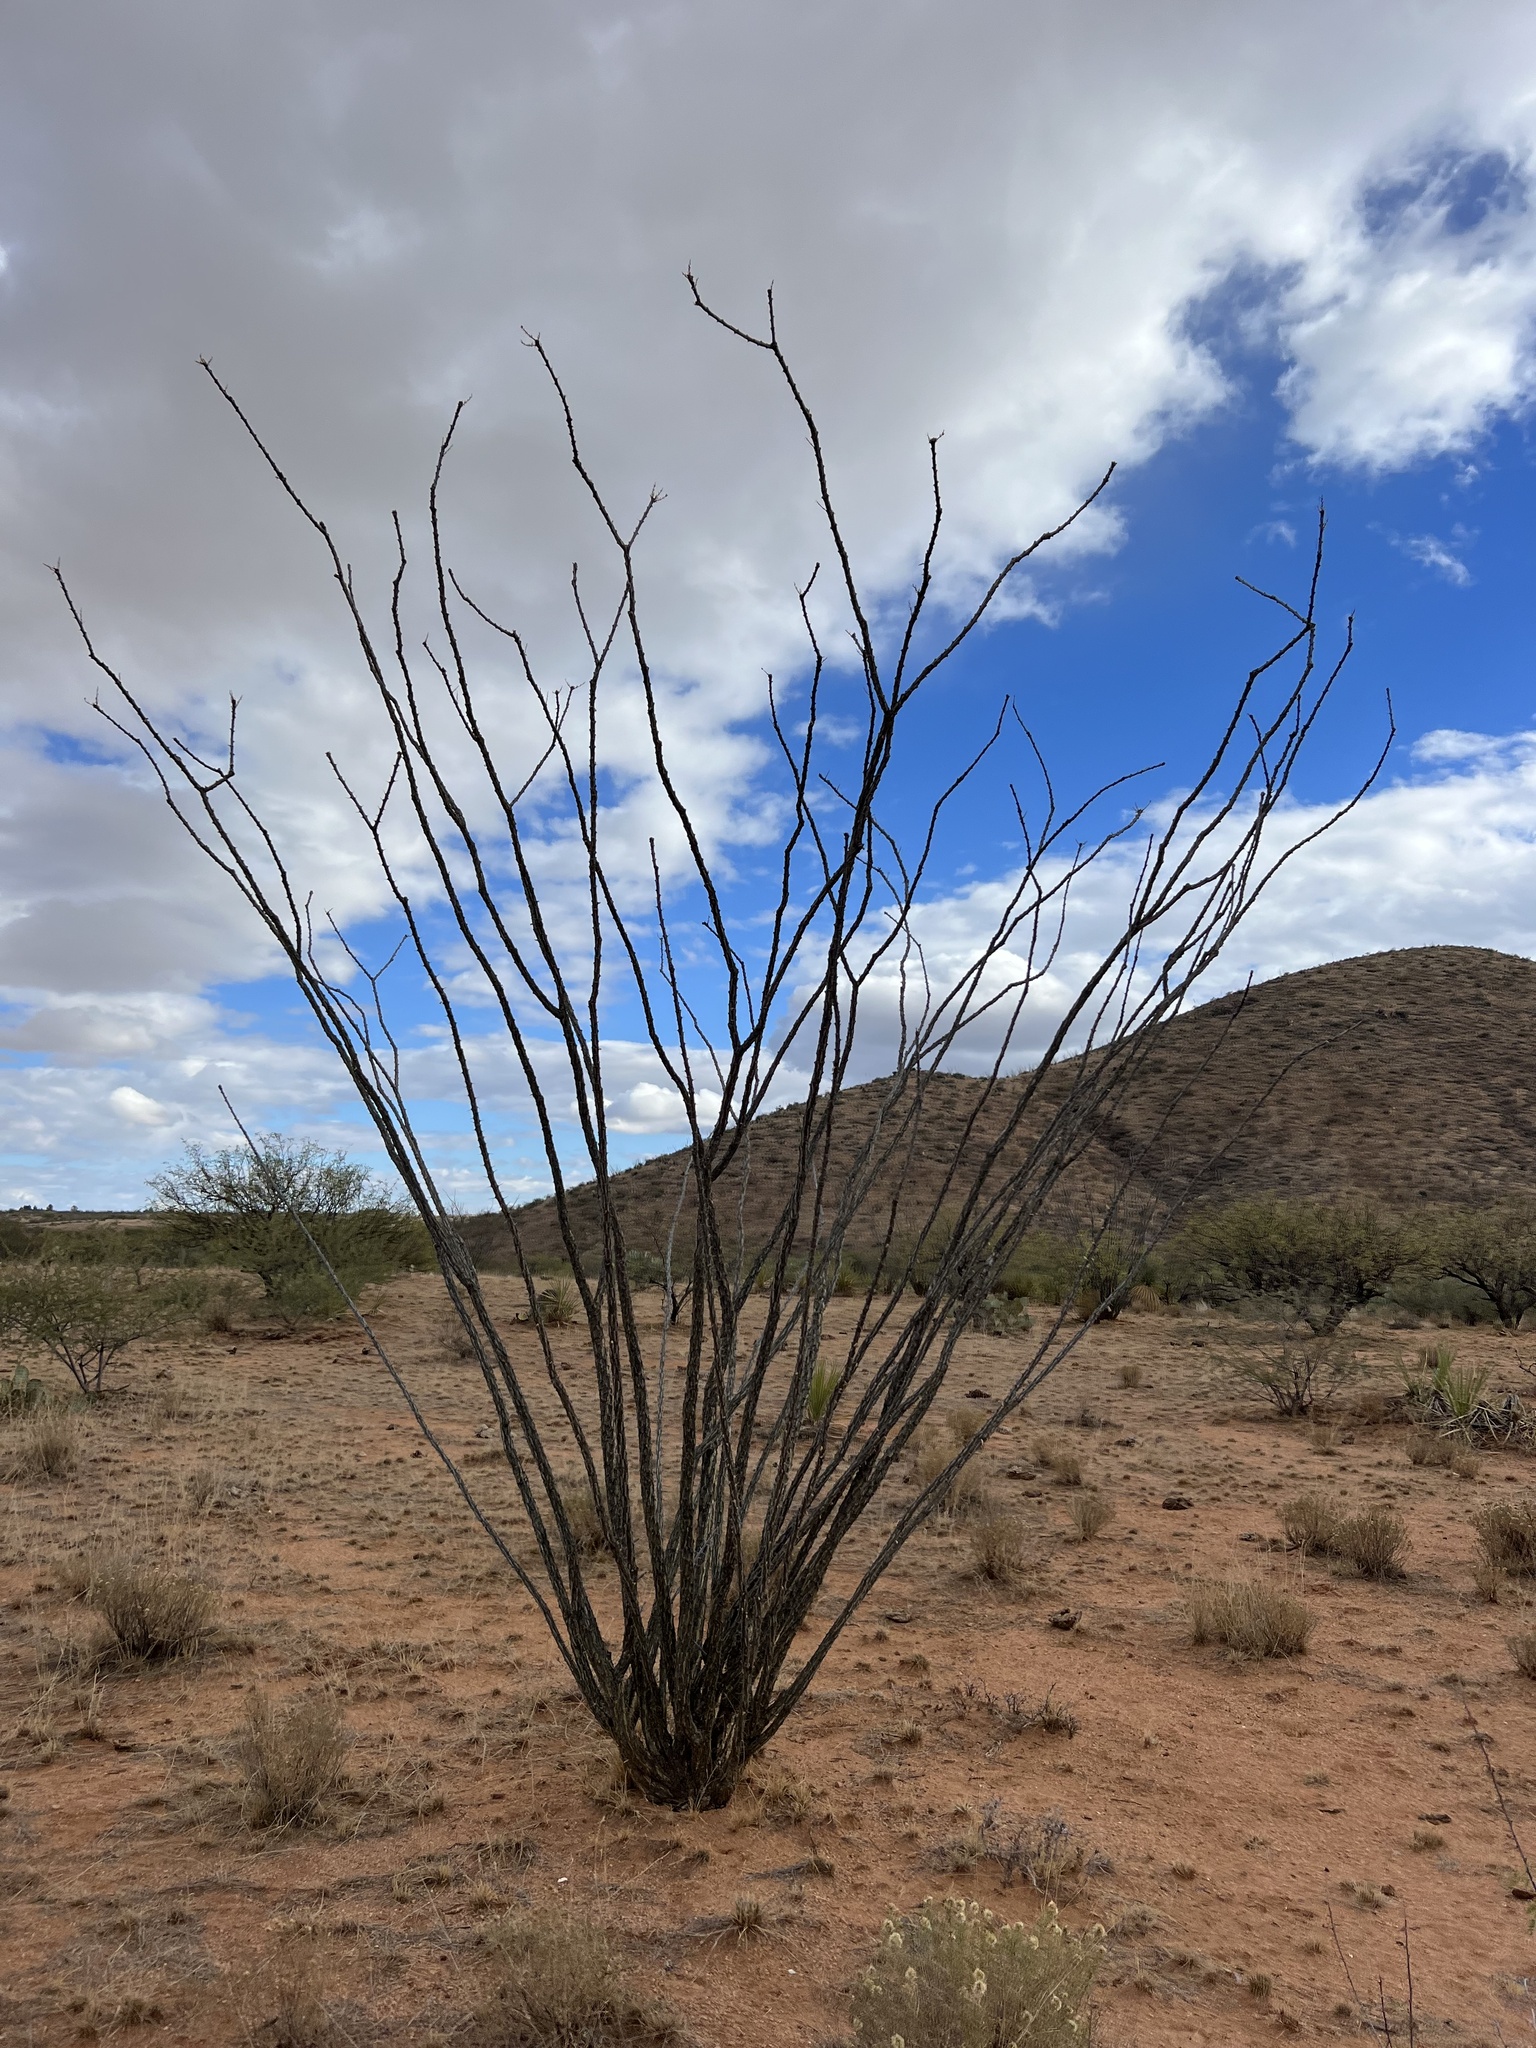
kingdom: Plantae
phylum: Tracheophyta
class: Magnoliopsida
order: Ericales
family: Fouquieriaceae
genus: Fouquieria
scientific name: Fouquieria splendens
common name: Vine-cactus
